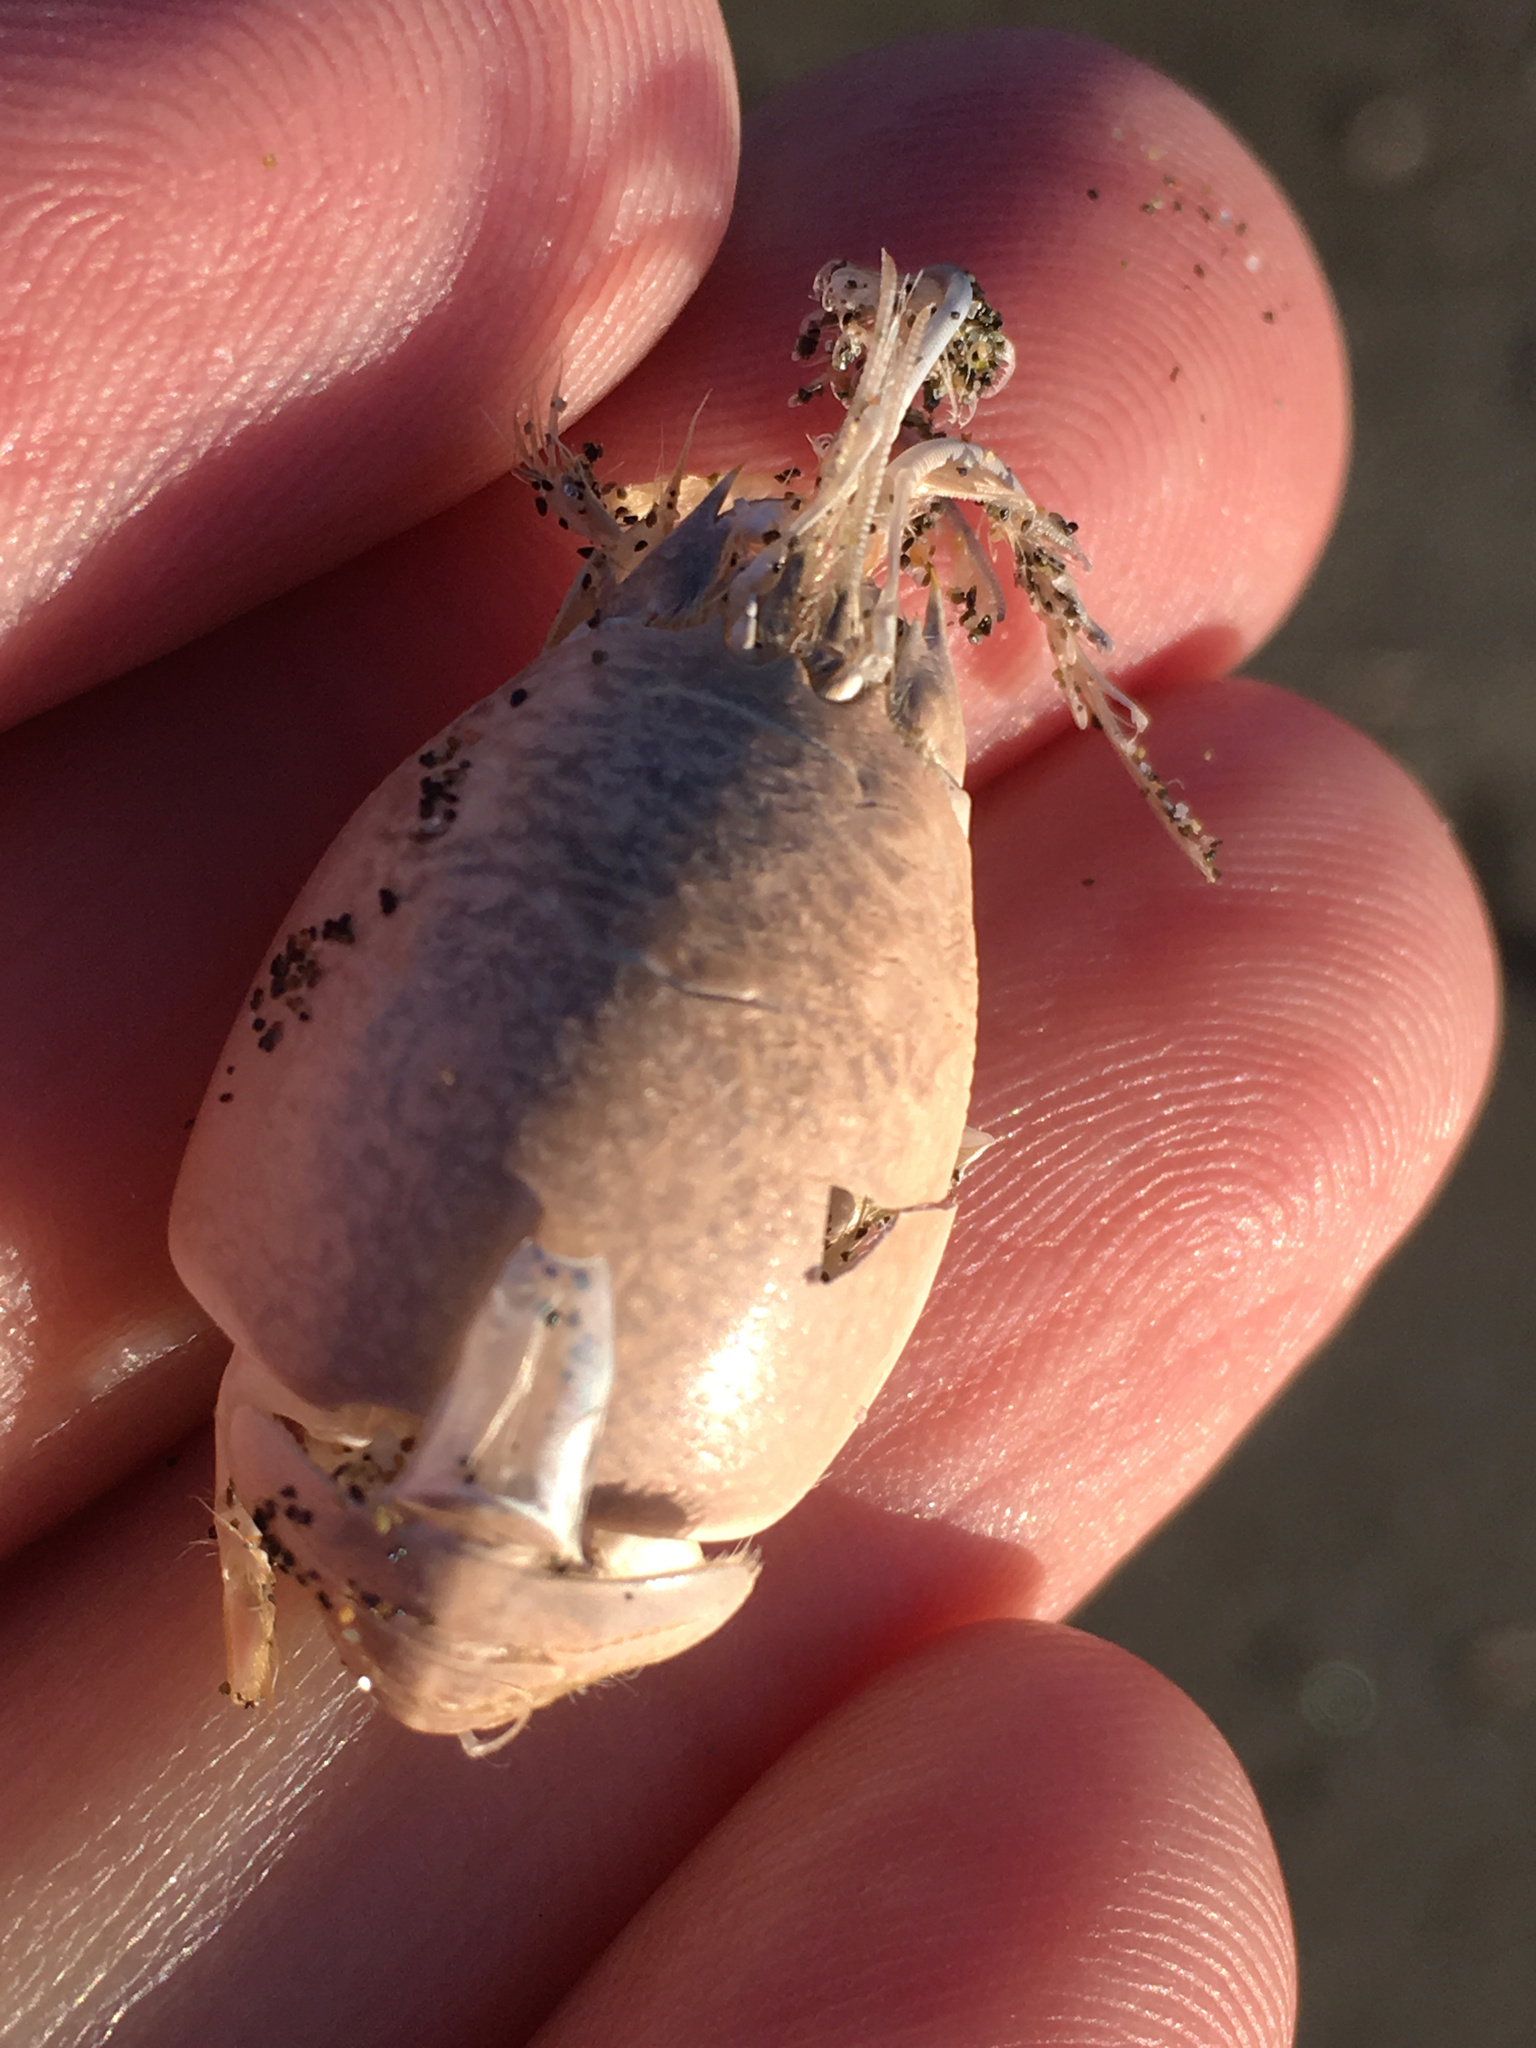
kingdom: Animalia
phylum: Arthropoda
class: Malacostraca
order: Decapoda
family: Hippidae
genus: Emerita
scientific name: Emerita analoga
